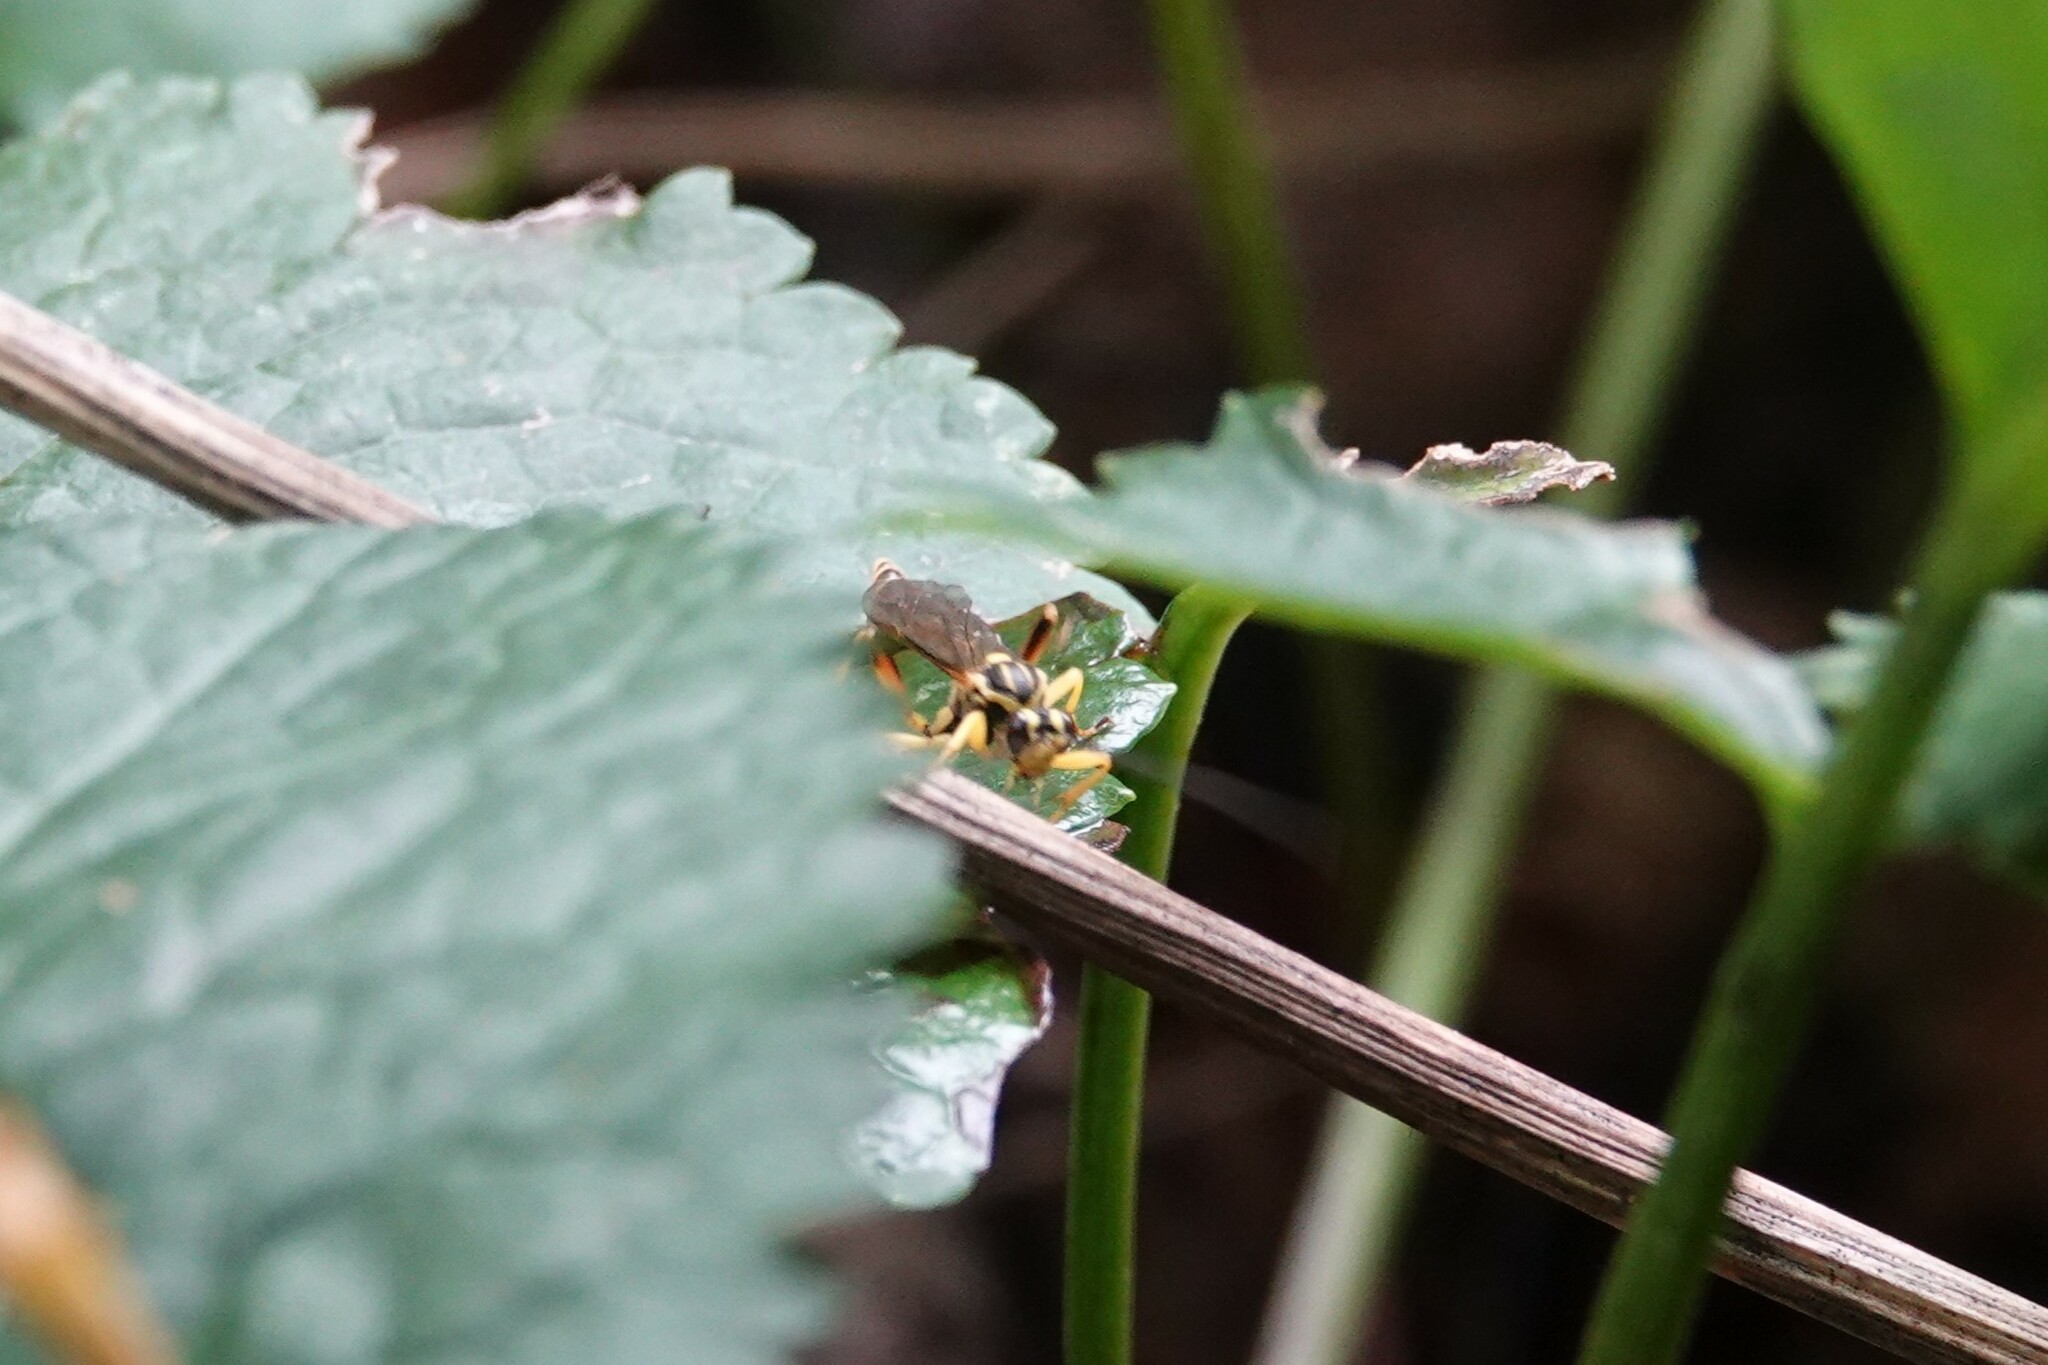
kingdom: Animalia
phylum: Arthropoda
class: Insecta
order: Hymenoptera
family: Ichneumonidae
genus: Setanta
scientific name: Setanta compta
